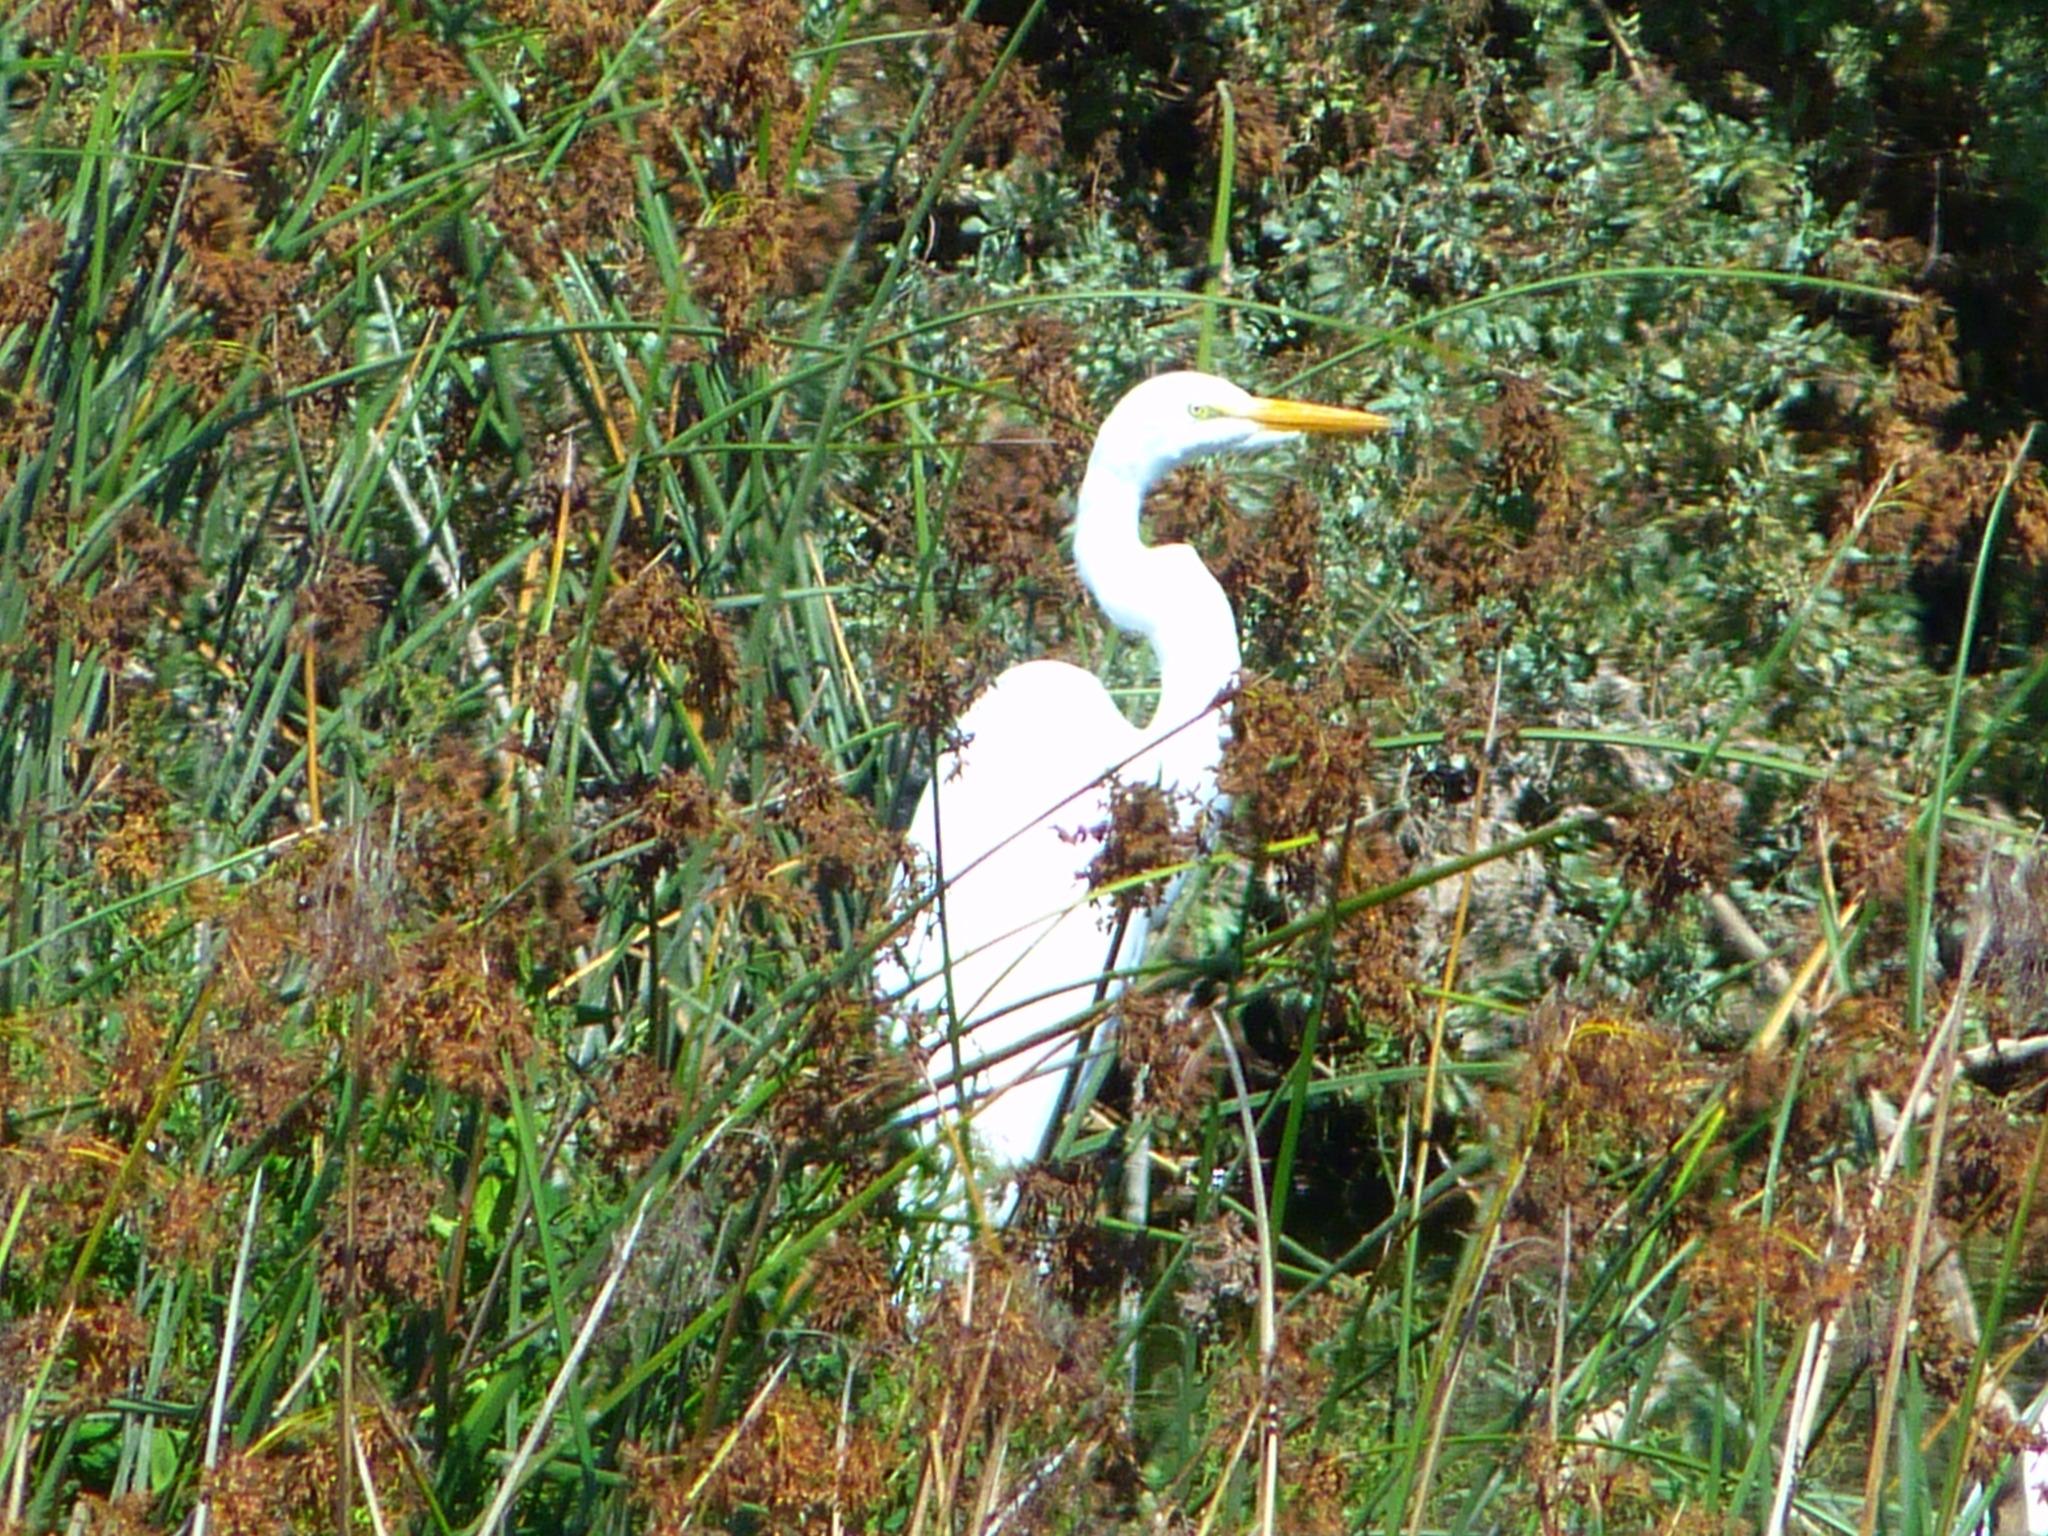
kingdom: Animalia
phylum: Chordata
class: Aves
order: Pelecaniformes
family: Ardeidae
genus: Ardea
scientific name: Ardea alba
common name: Great egret
